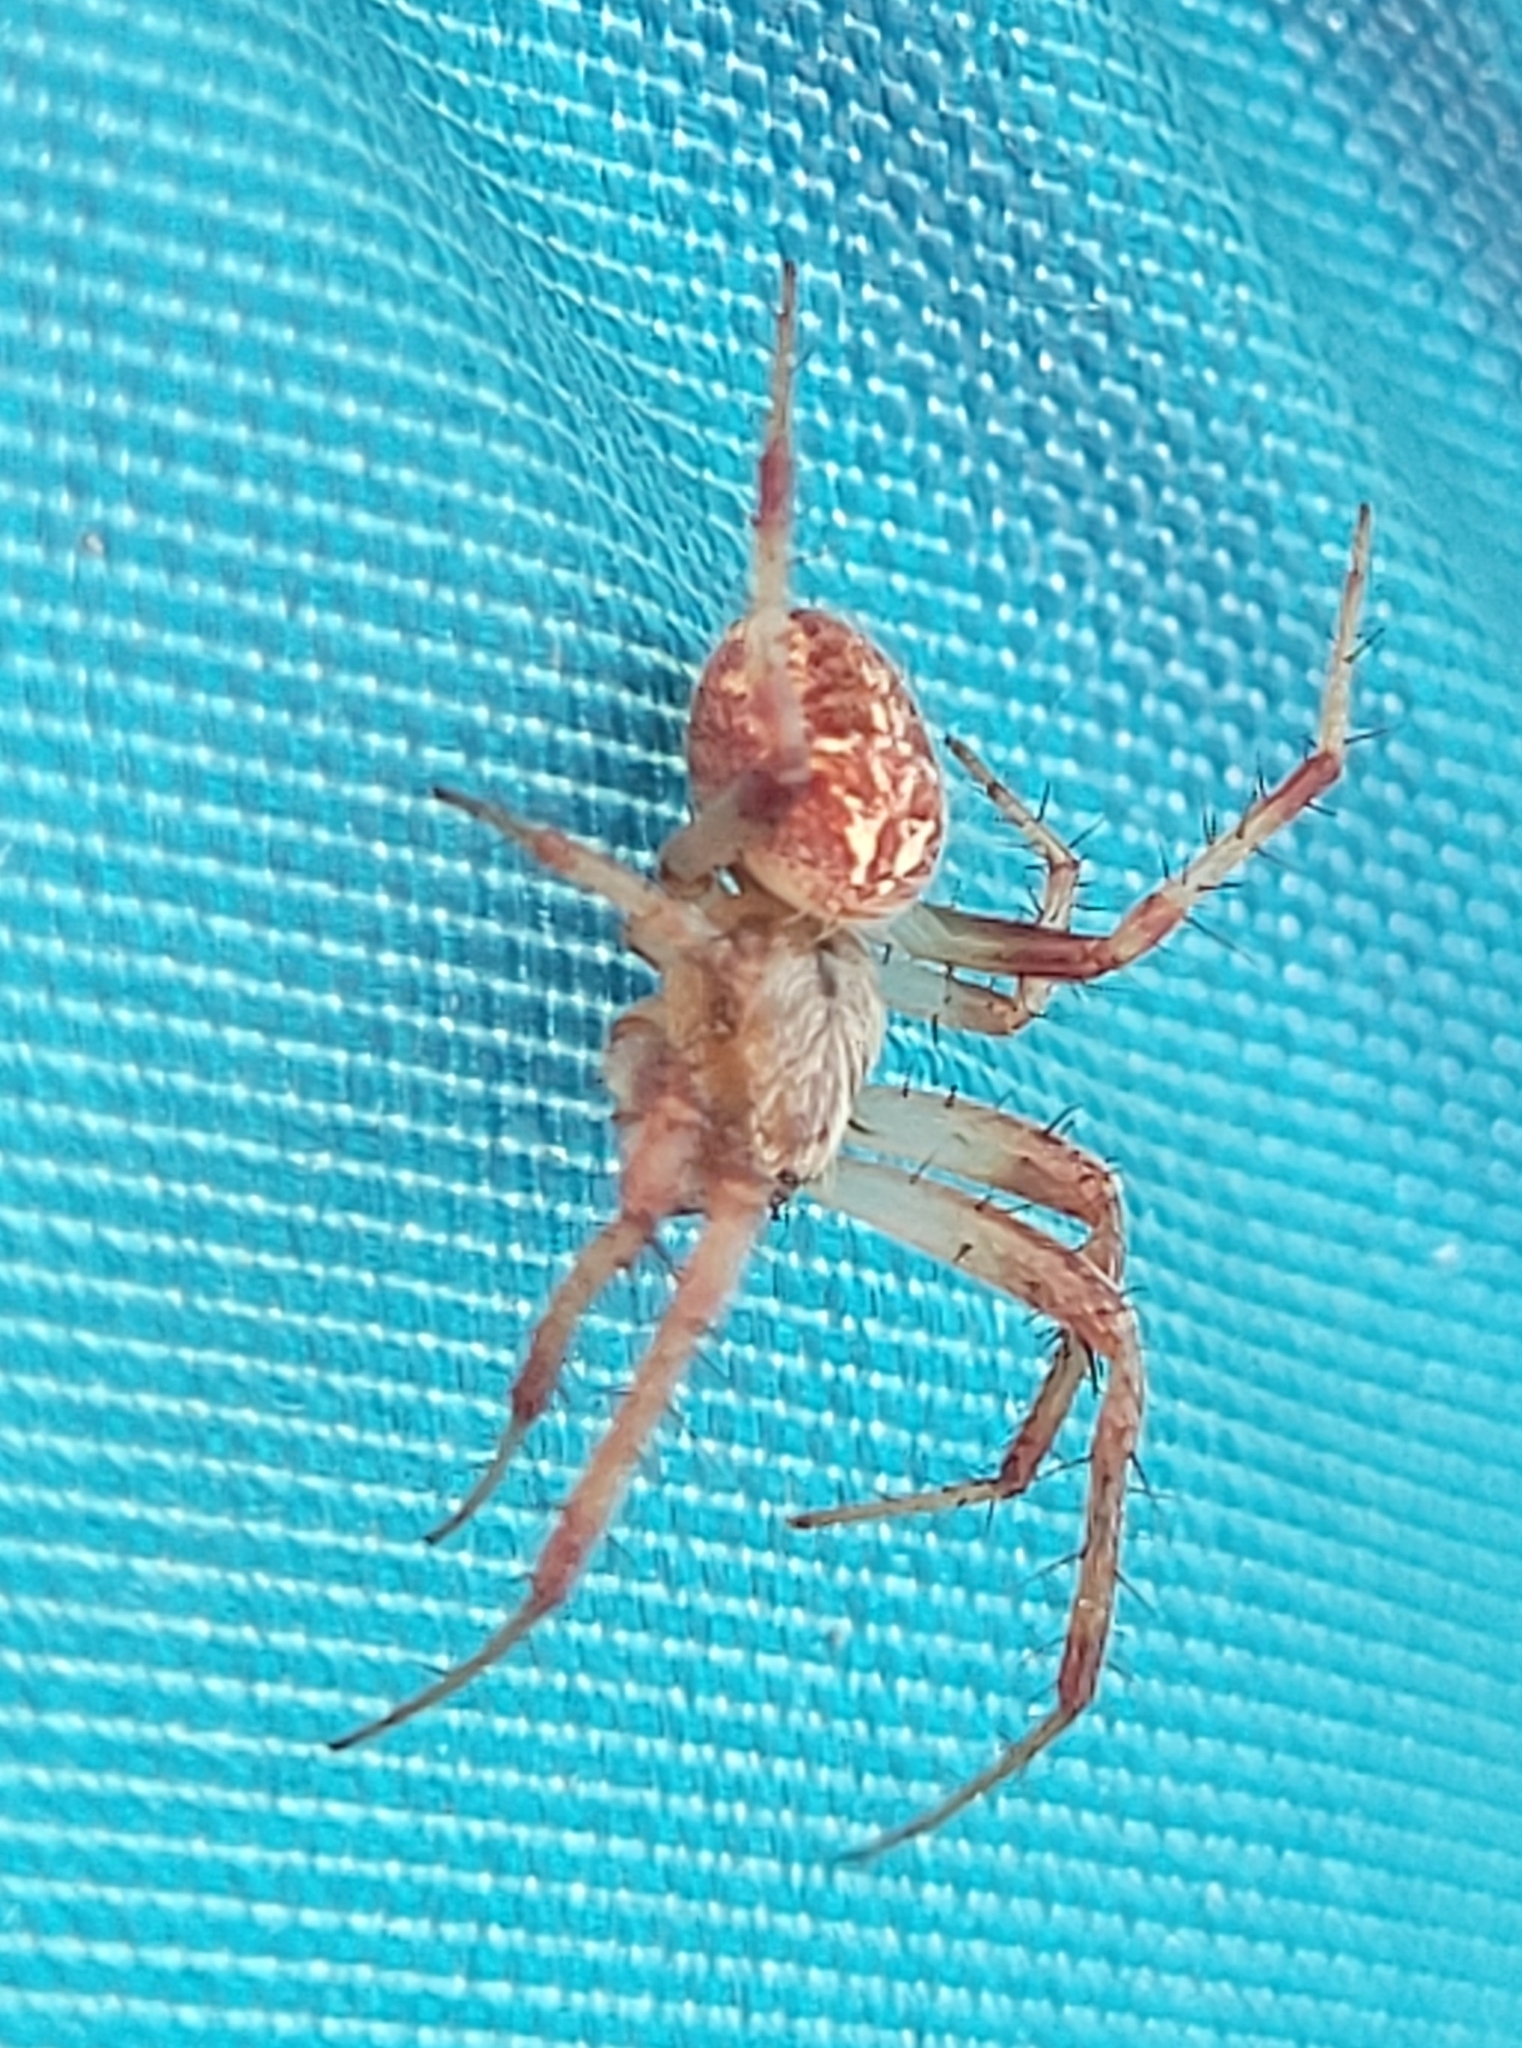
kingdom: Animalia
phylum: Arthropoda
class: Arachnida
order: Araneae
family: Araneidae
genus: Neoscona
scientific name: Neoscona arabesca
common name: Orb weavers
